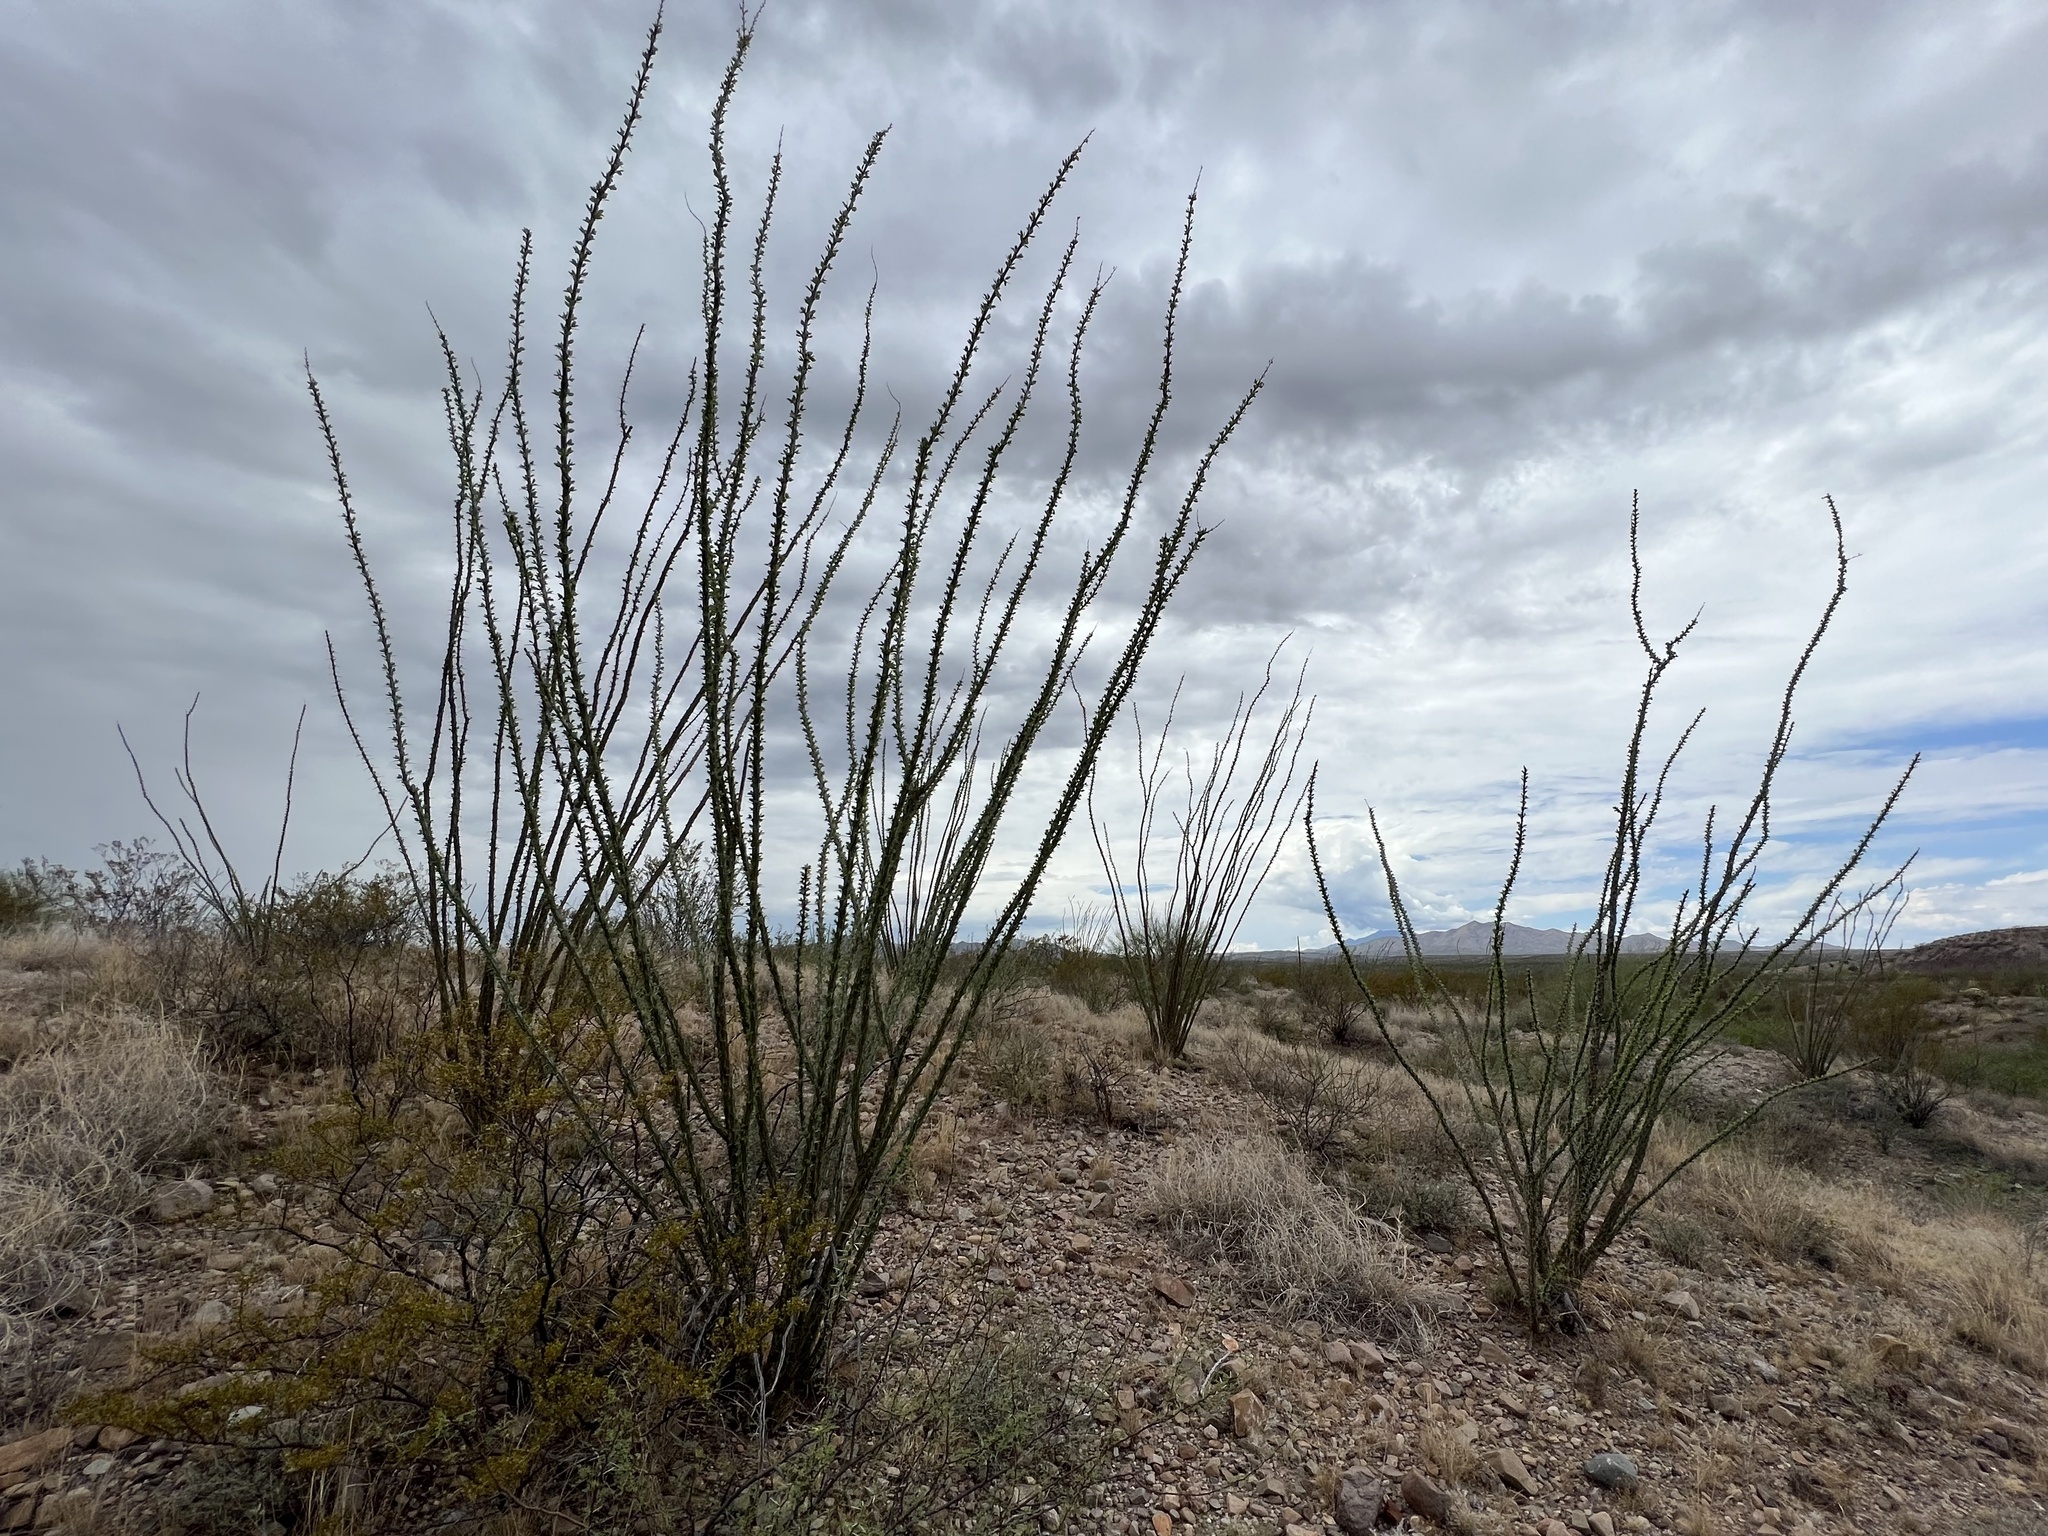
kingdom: Plantae
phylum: Tracheophyta
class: Magnoliopsida
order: Ericales
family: Fouquieriaceae
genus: Fouquieria
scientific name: Fouquieria splendens
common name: Vine-cactus
